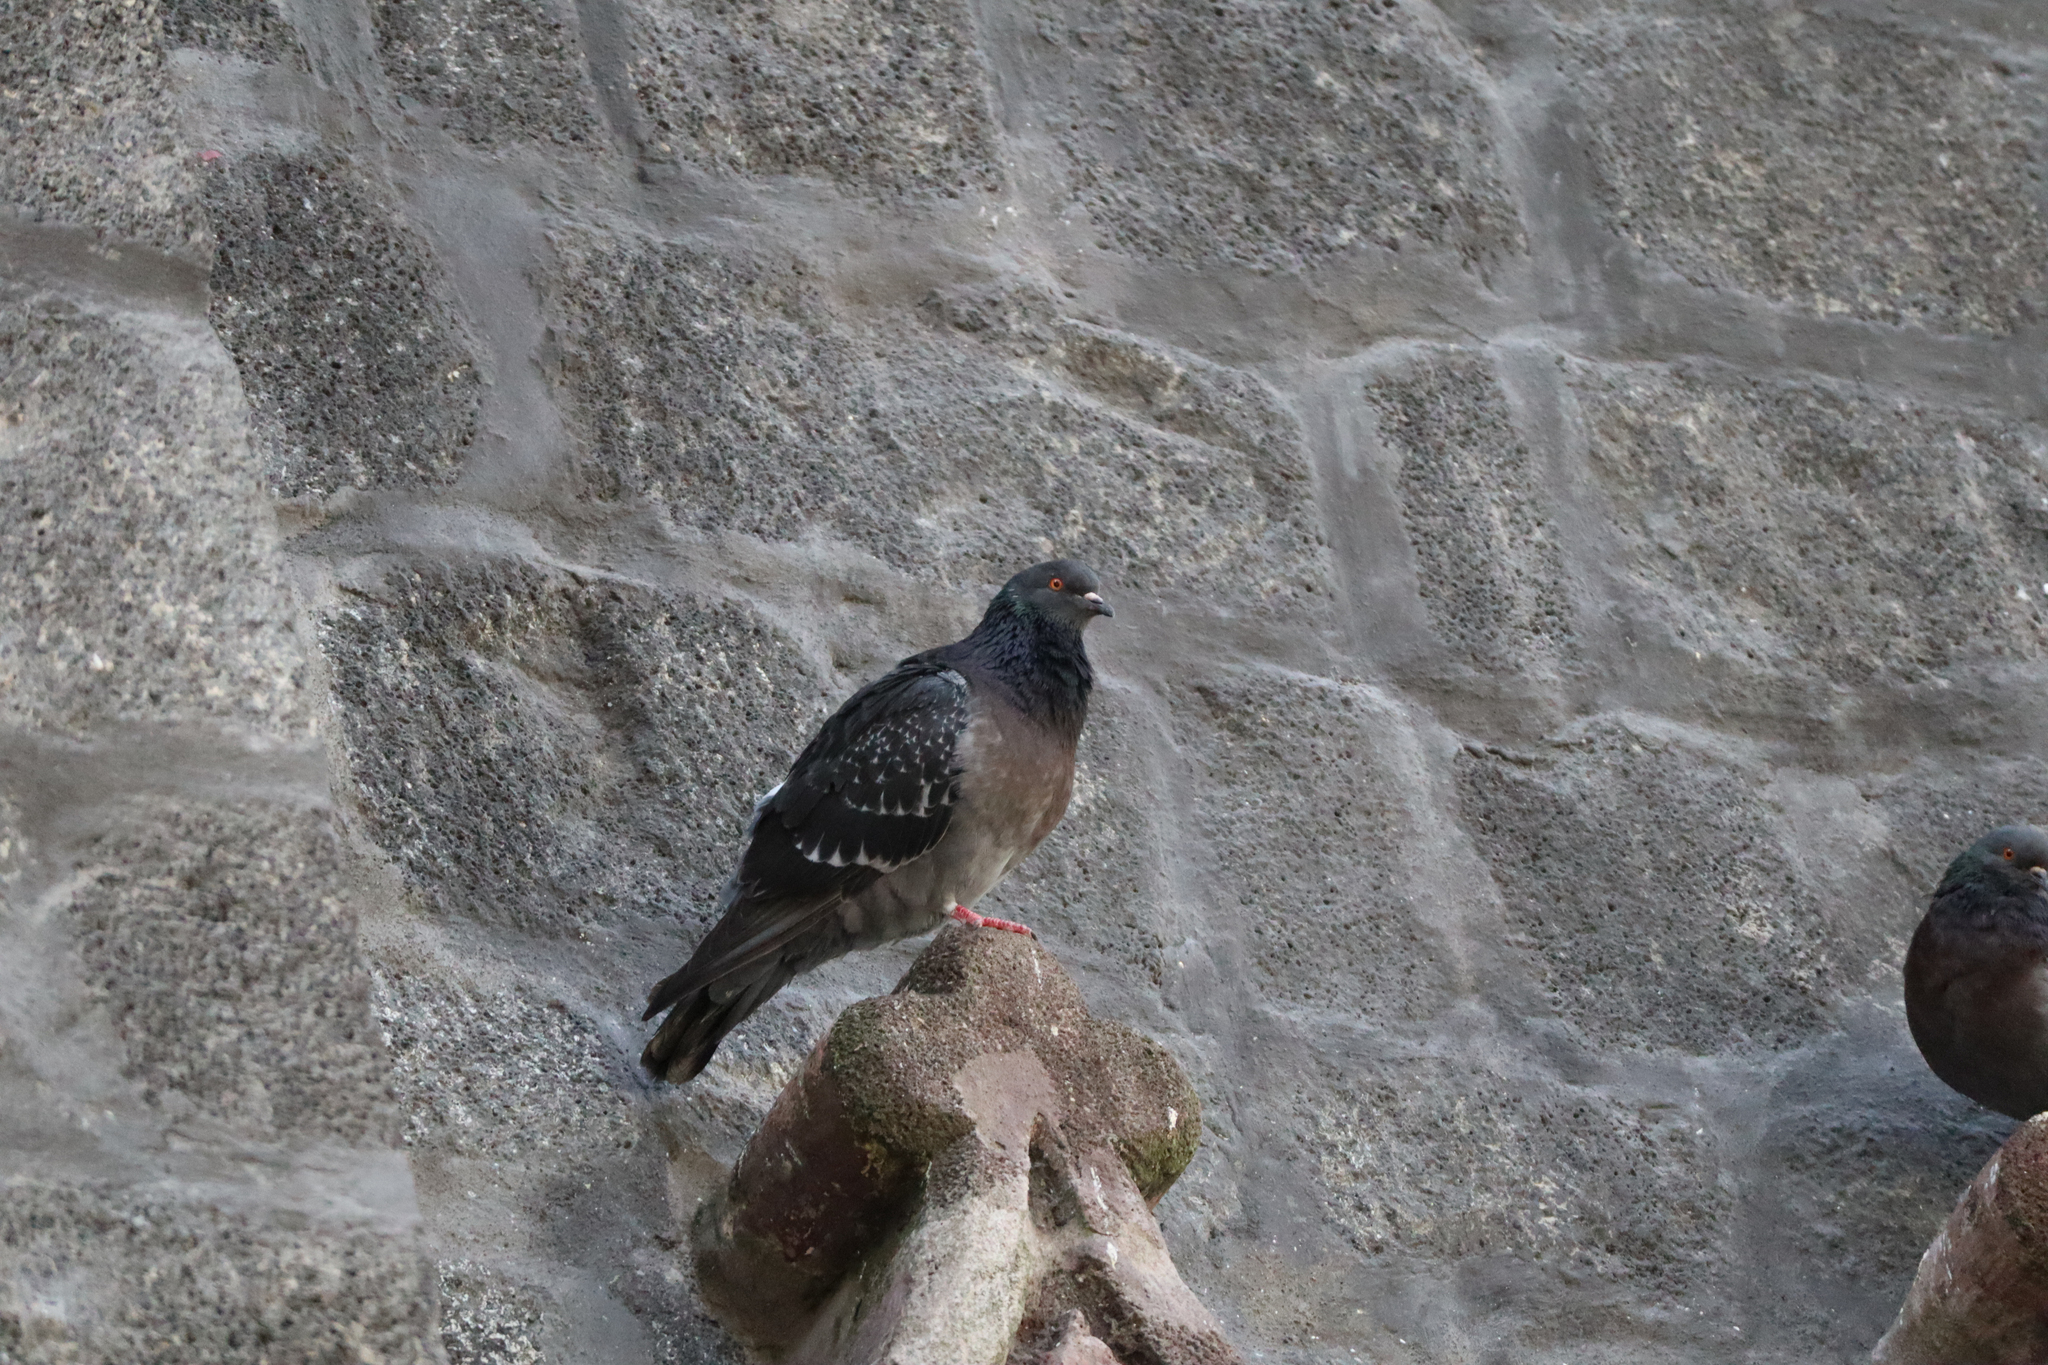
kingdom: Animalia
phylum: Chordata
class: Aves
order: Columbiformes
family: Columbidae
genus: Columba
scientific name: Columba livia
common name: Rock pigeon
